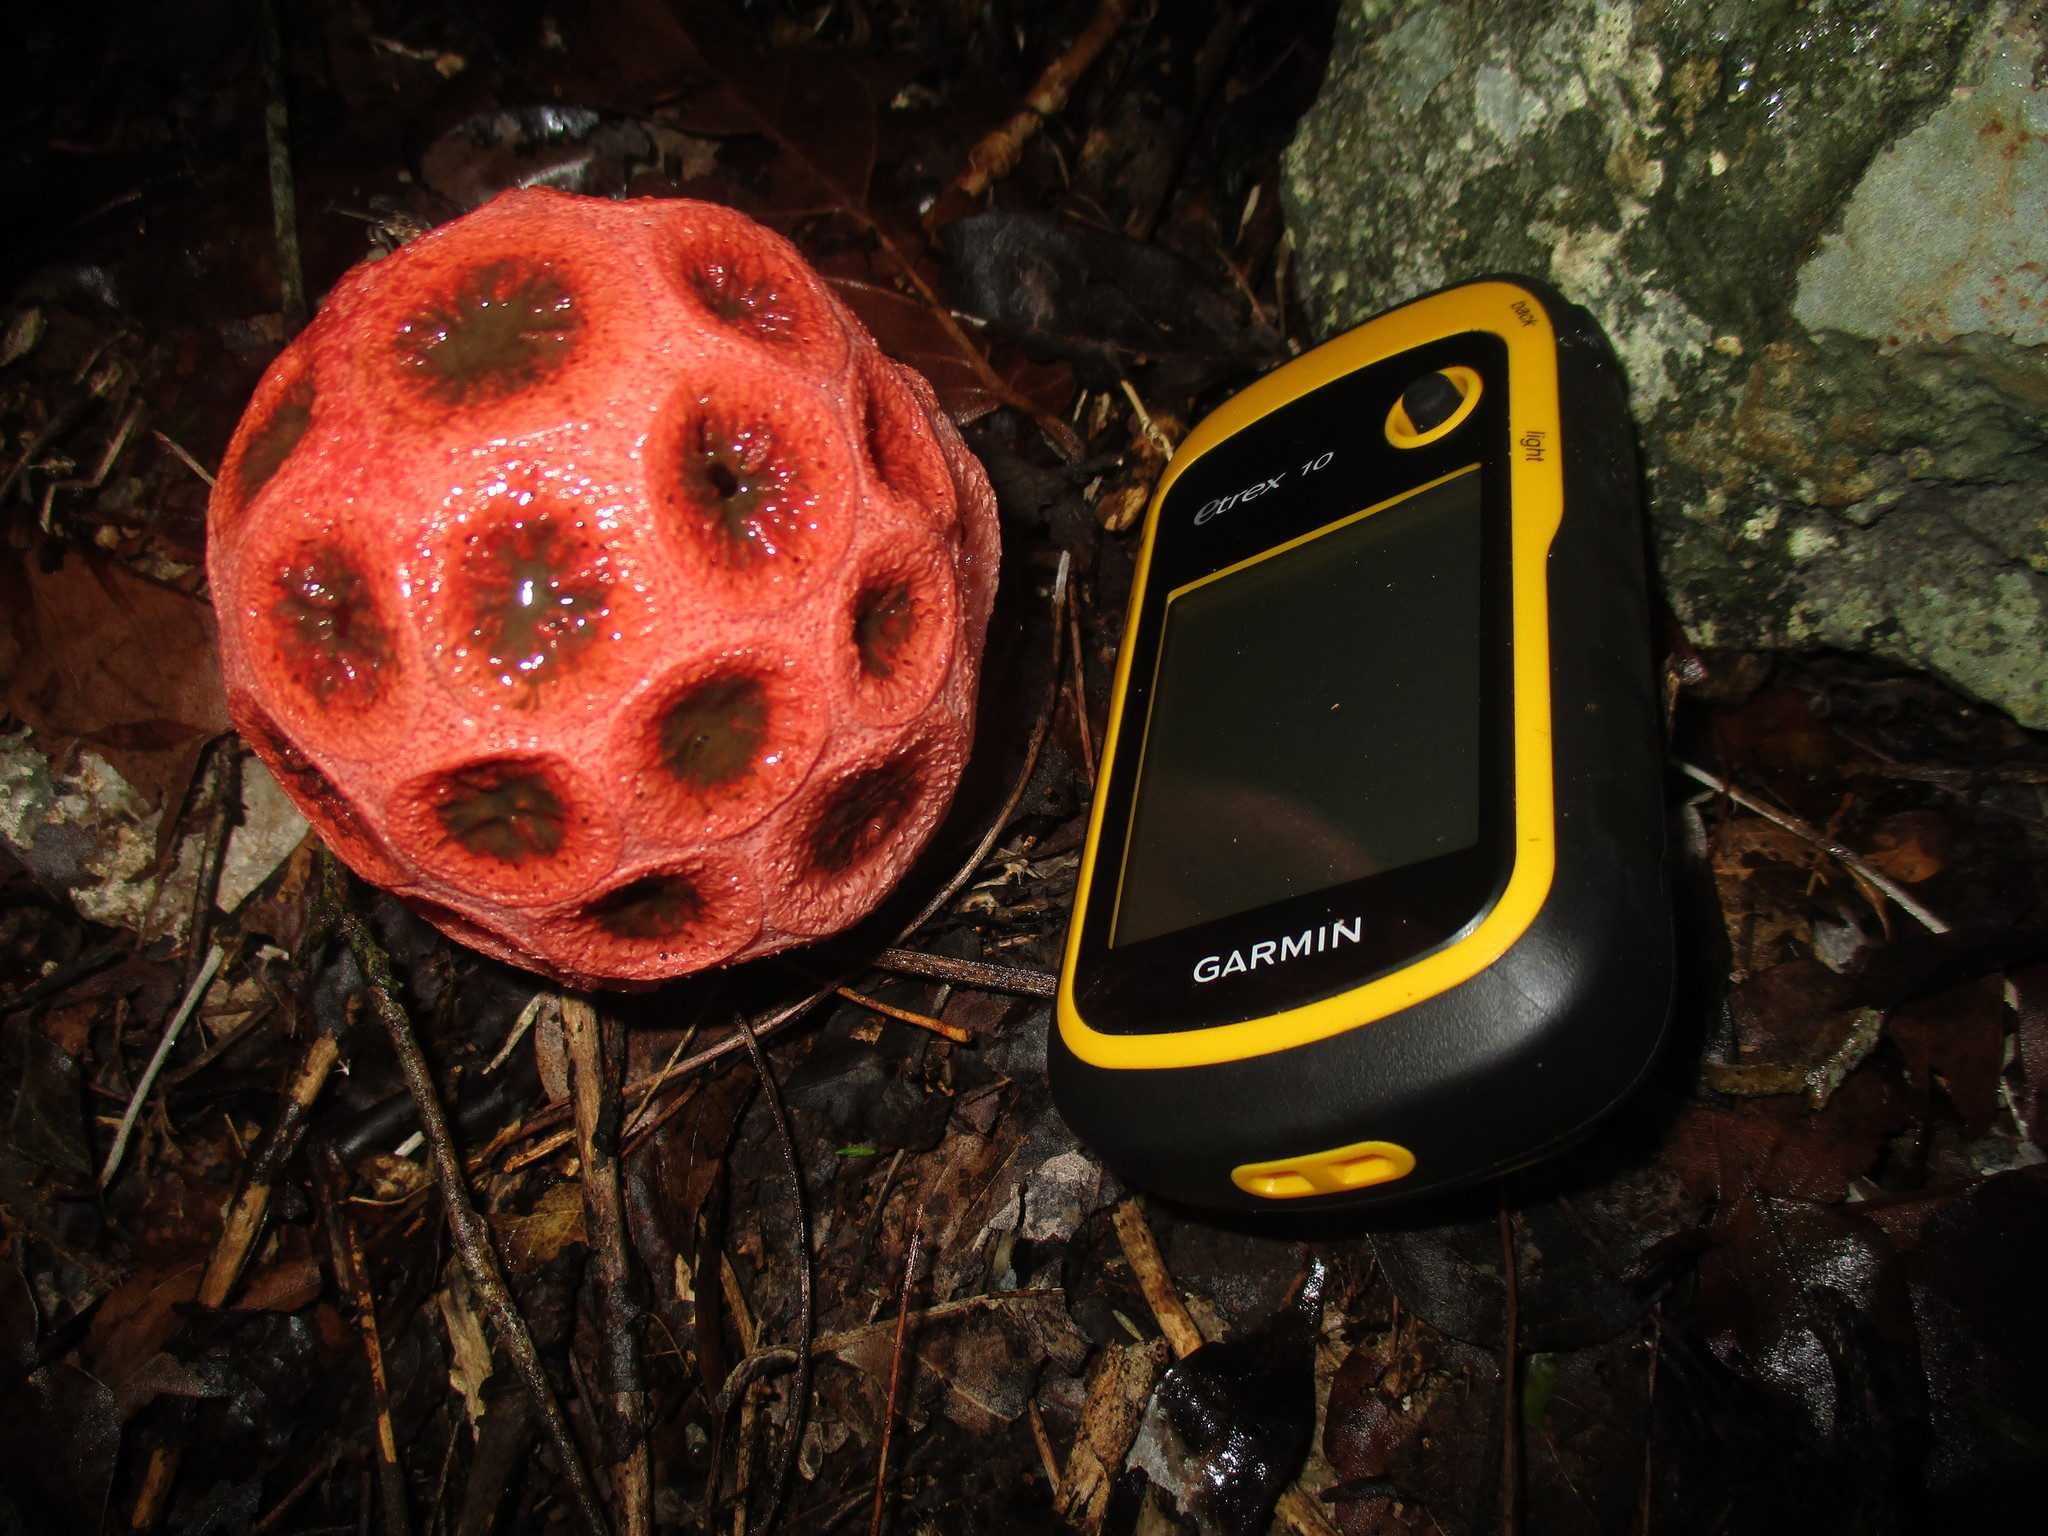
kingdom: Fungi
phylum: Basidiomycota
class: Agaricomycetes
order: Phallales
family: Phallaceae
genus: Clathrus
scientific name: Clathrus crispatus
